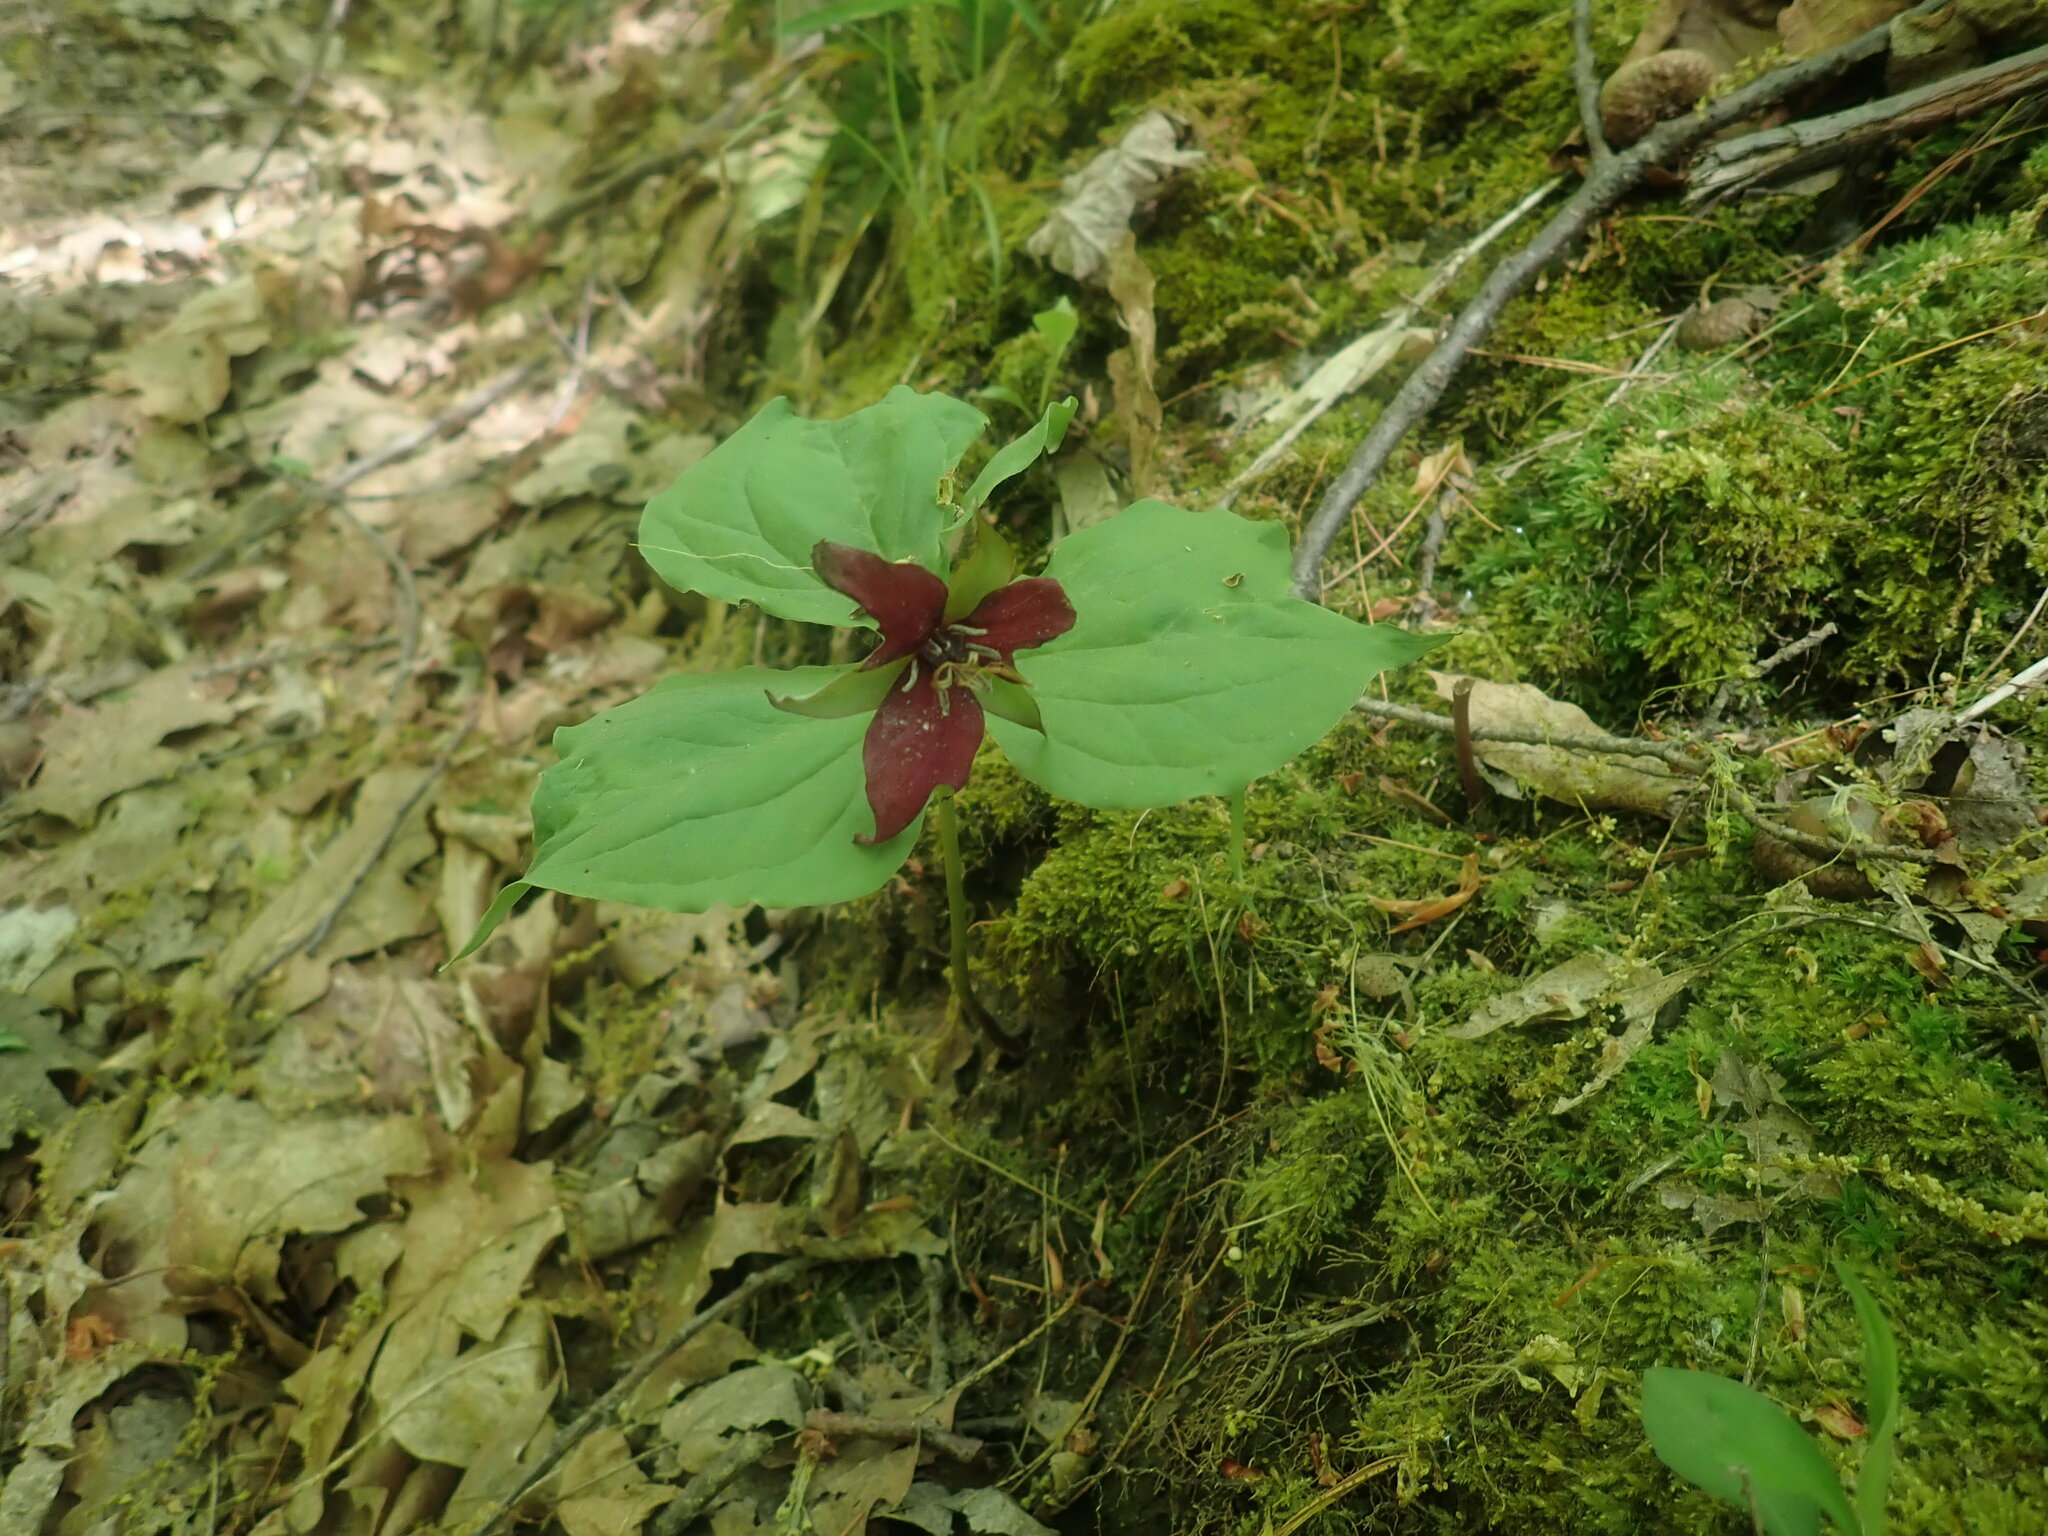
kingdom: Plantae
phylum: Tracheophyta
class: Liliopsida
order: Liliales
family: Melanthiaceae
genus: Trillium
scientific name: Trillium erectum
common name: Purple trillium
